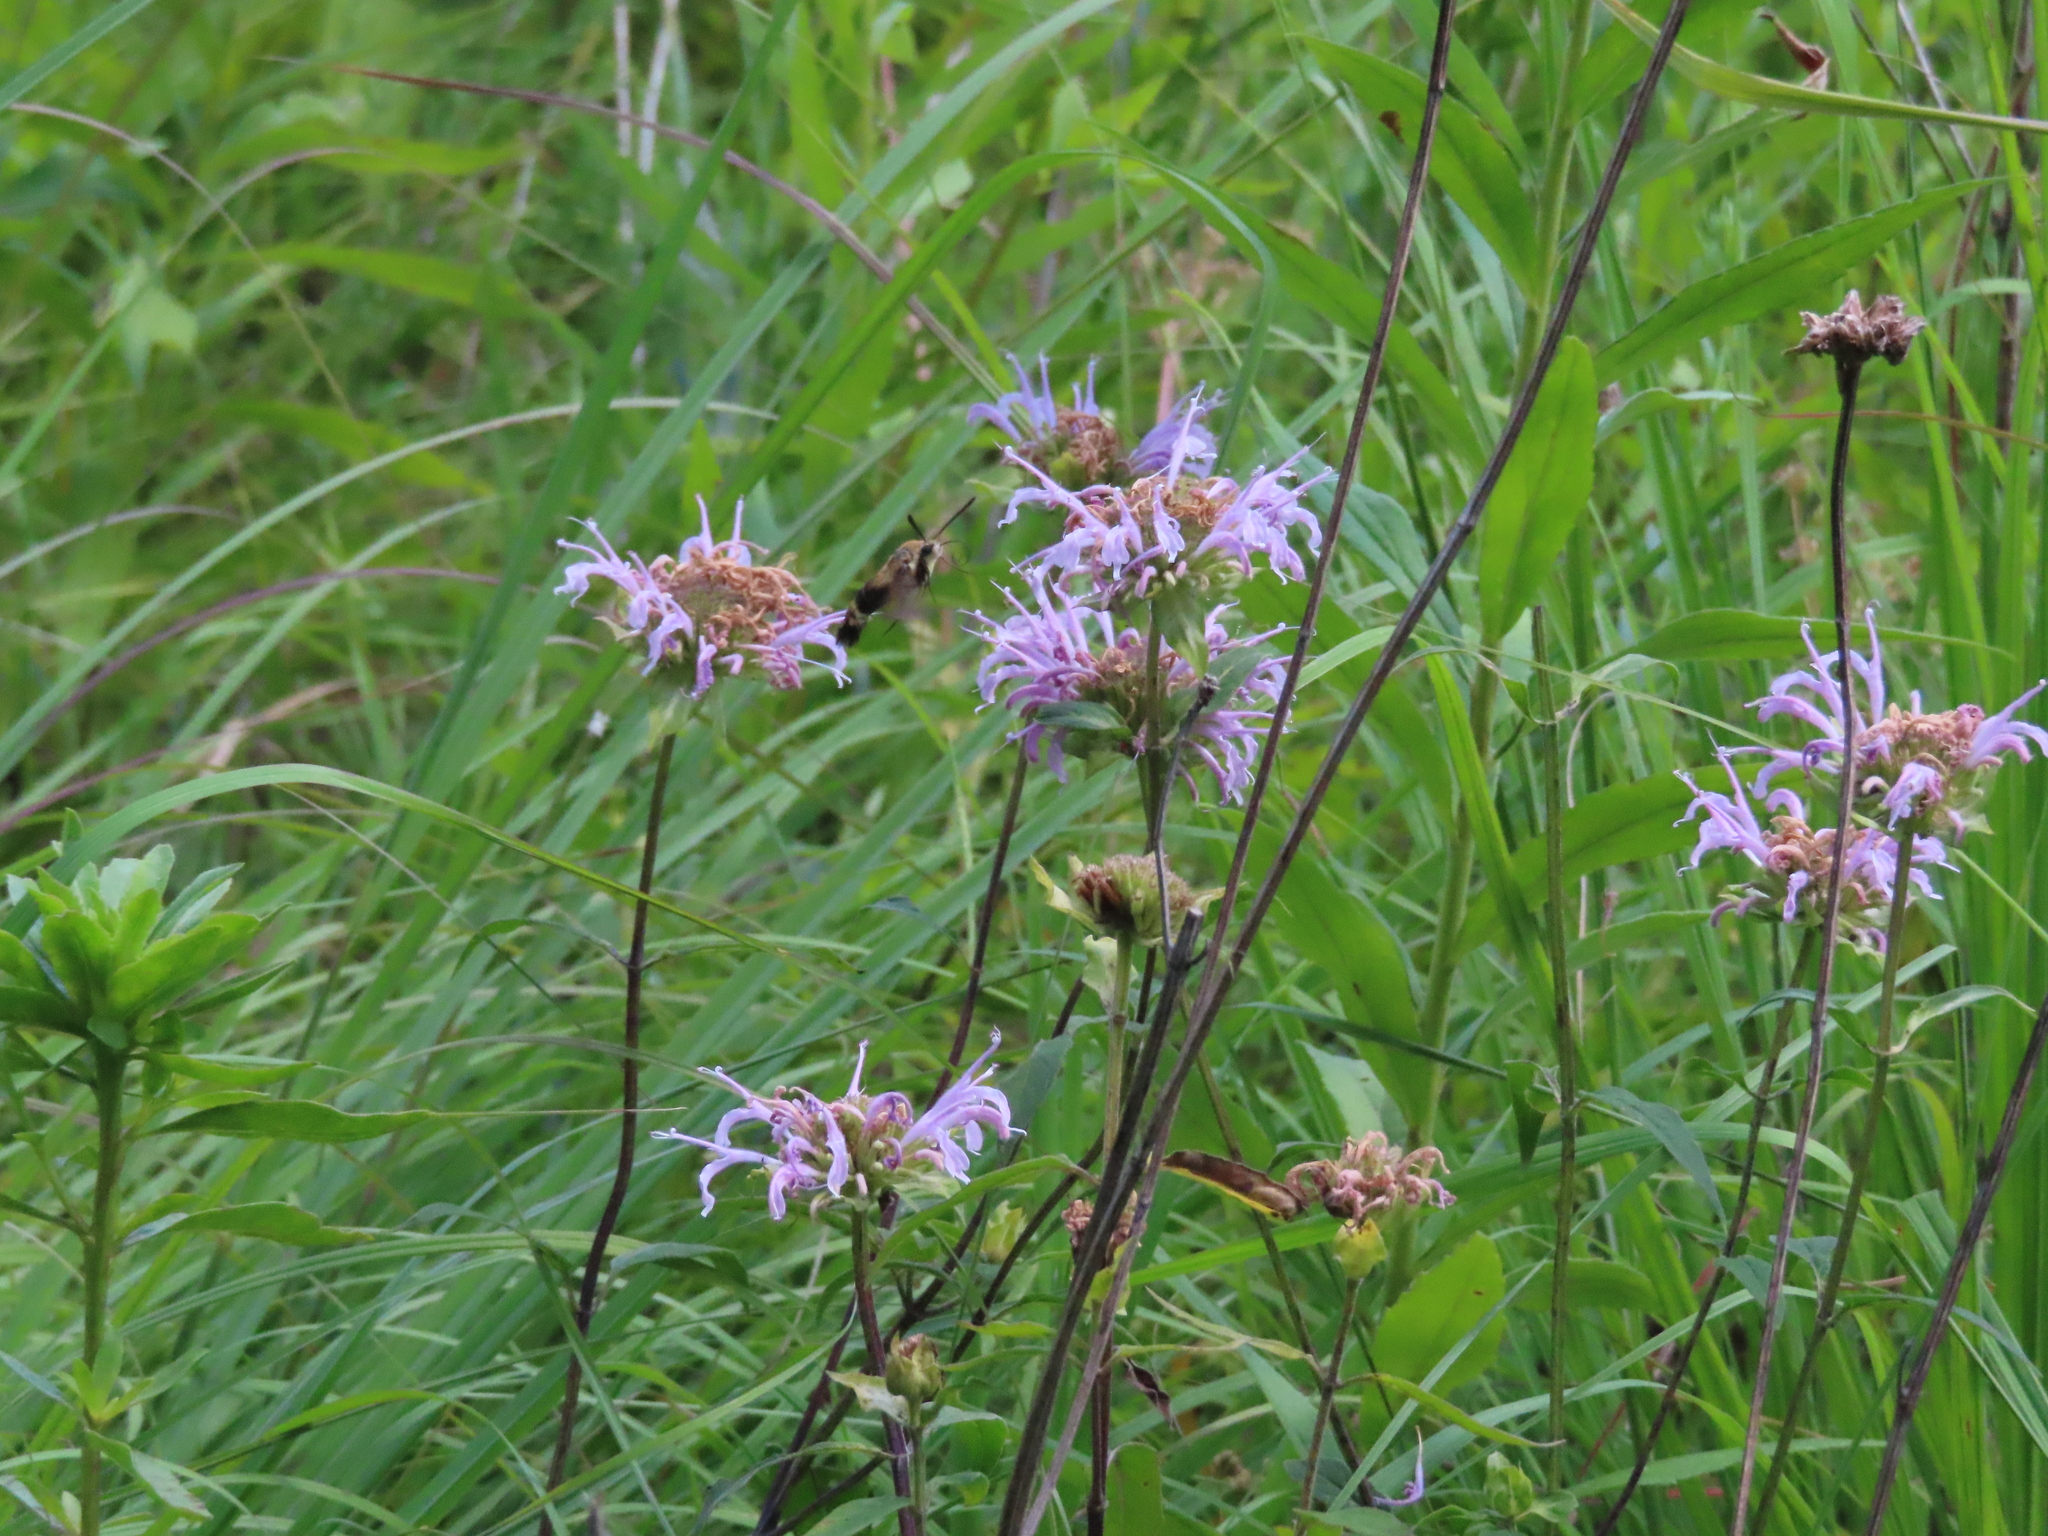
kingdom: Animalia
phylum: Arthropoda
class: Insecta
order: Lepidoptera
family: Sphingidae
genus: Hemaris
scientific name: Hemaris diffinis
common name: Bumblebee moth
